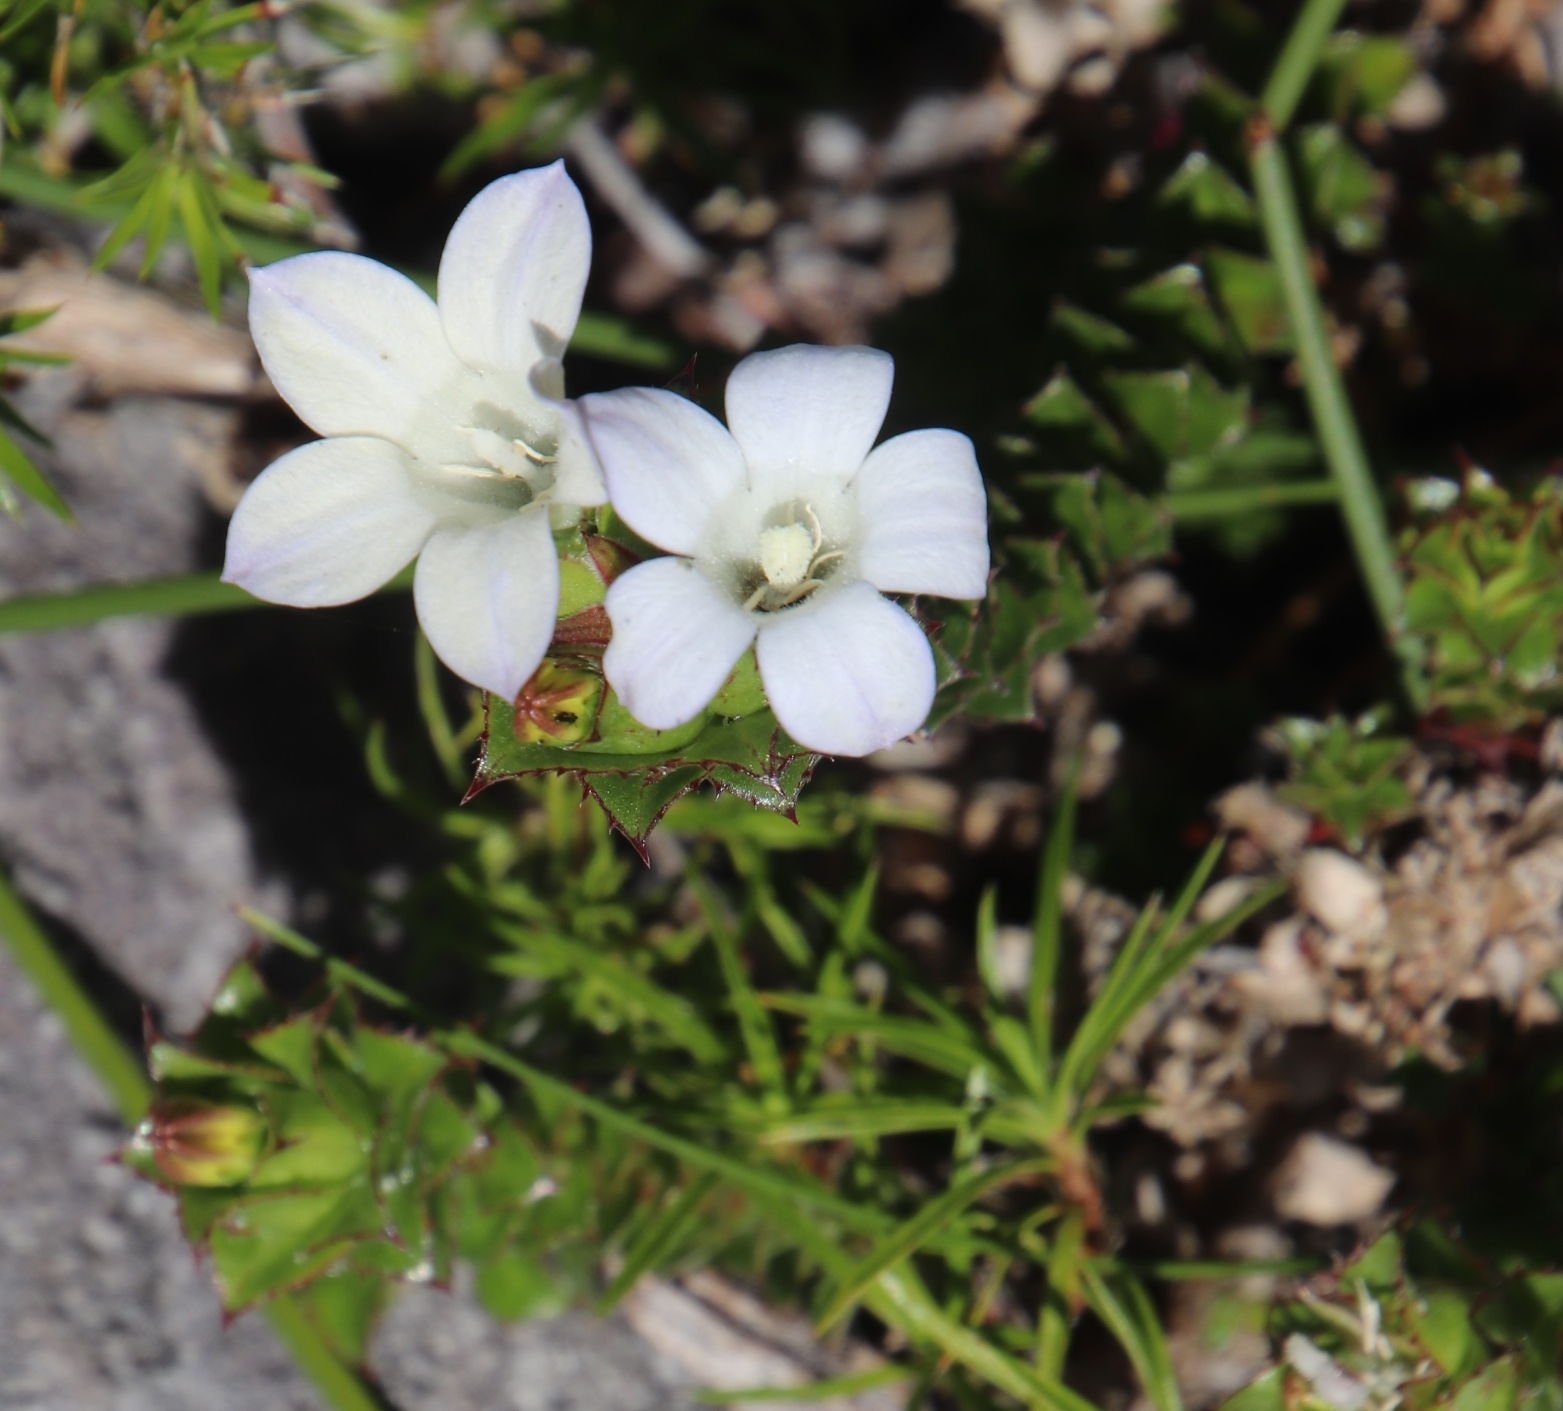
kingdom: Plantae
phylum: Tracheophyta
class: Magnoliopsida
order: Asterales
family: Campanulaceae
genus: Roella
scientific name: Roella amplexicaulis
